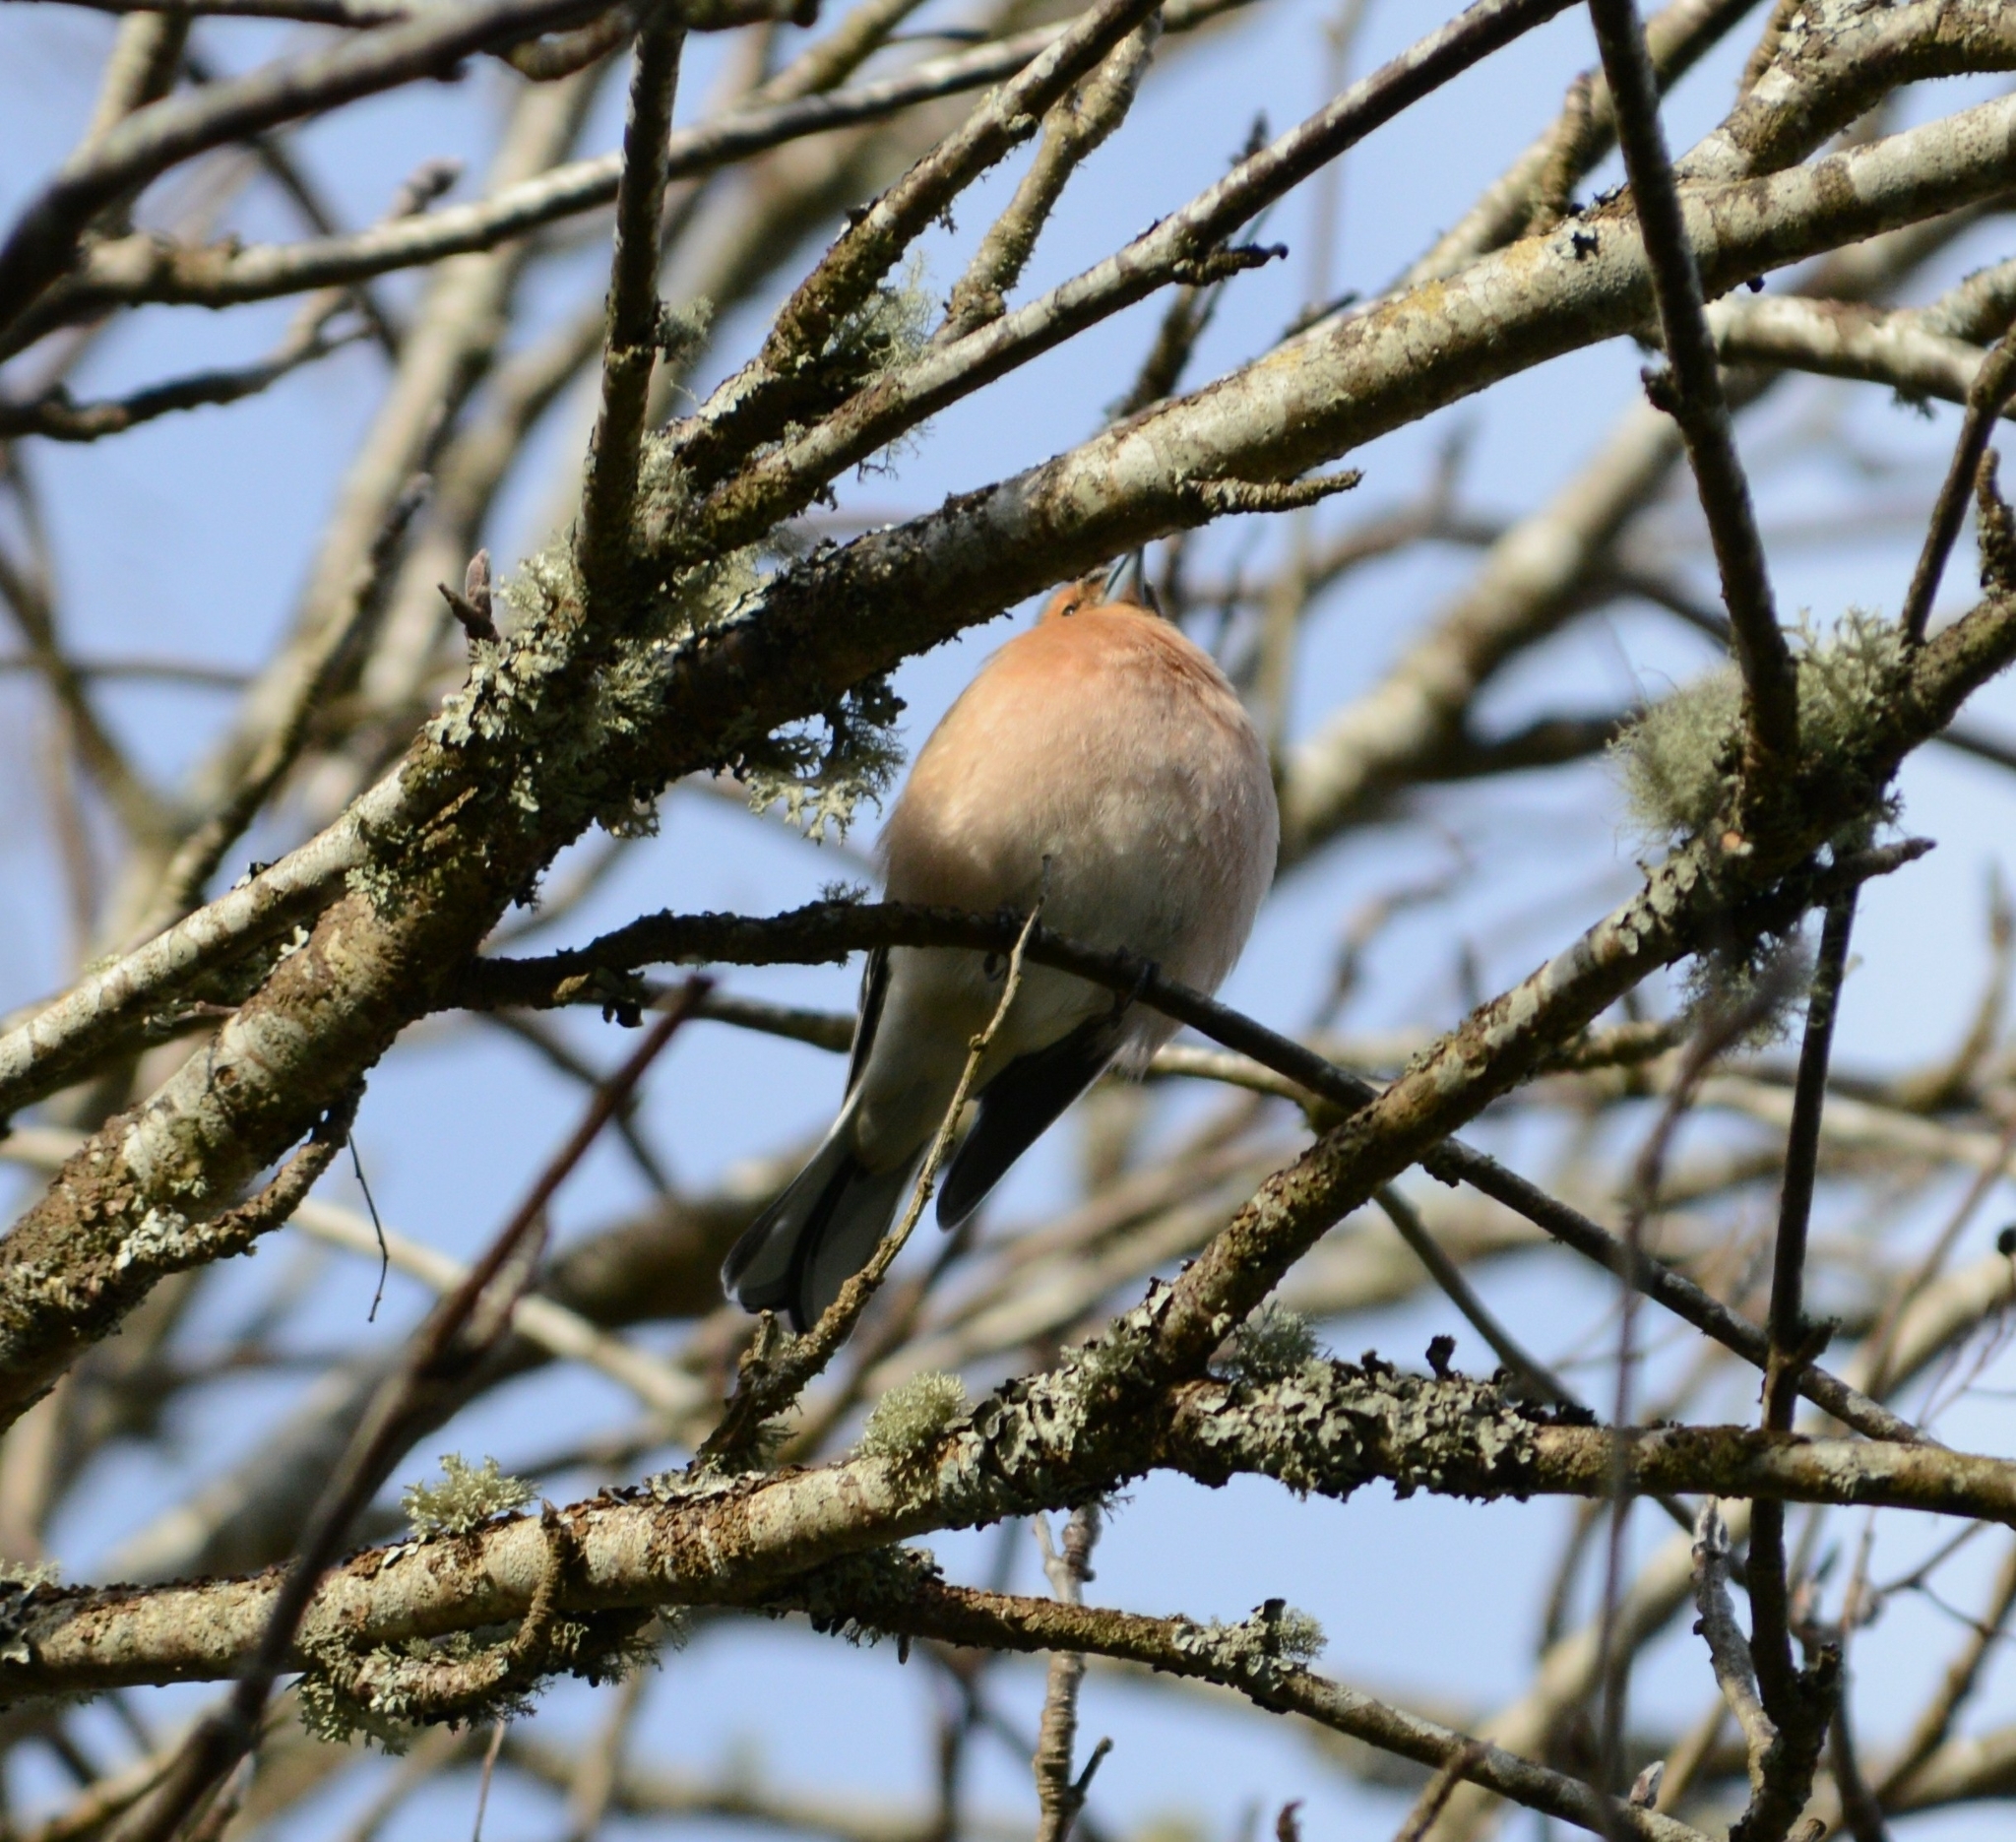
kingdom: Animalia
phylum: Chordata
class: Aves
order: Passeriformes
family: Fringillidae
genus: Fringilla
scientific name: Fringilla coelebs
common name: Common chaffinch
